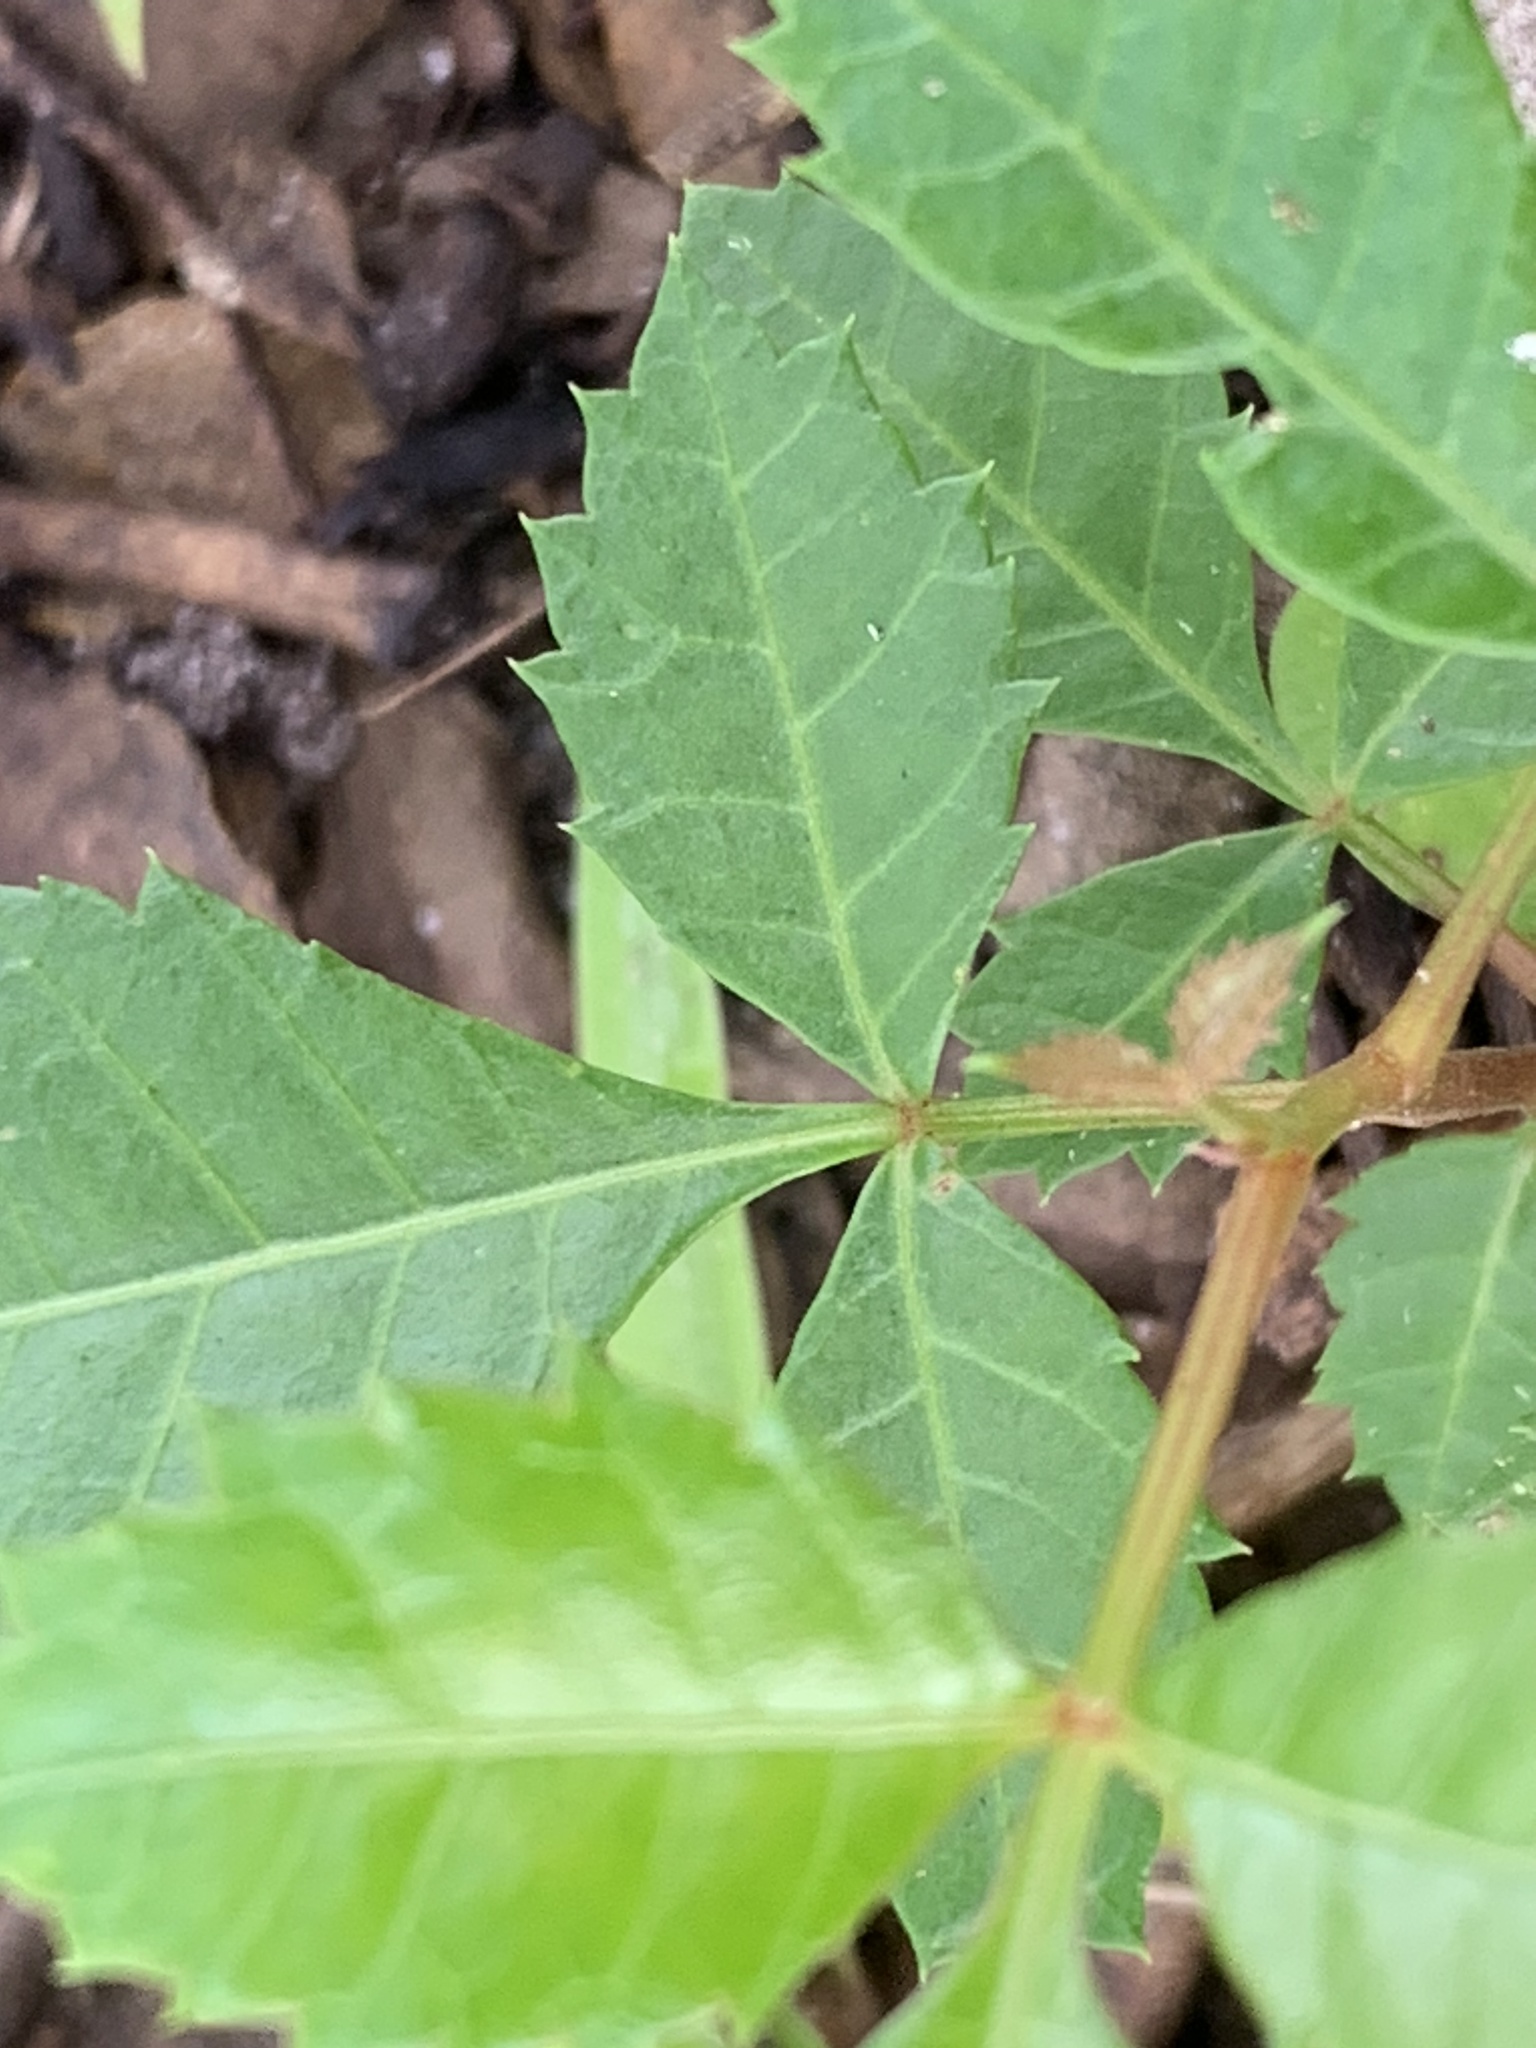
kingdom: Plantae
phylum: Tracheophyta
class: Magnoliopsida
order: Sapindales
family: Anacardiaceae
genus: Schinus
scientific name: Schinus terebinthifolia
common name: Brazilian peppertree
